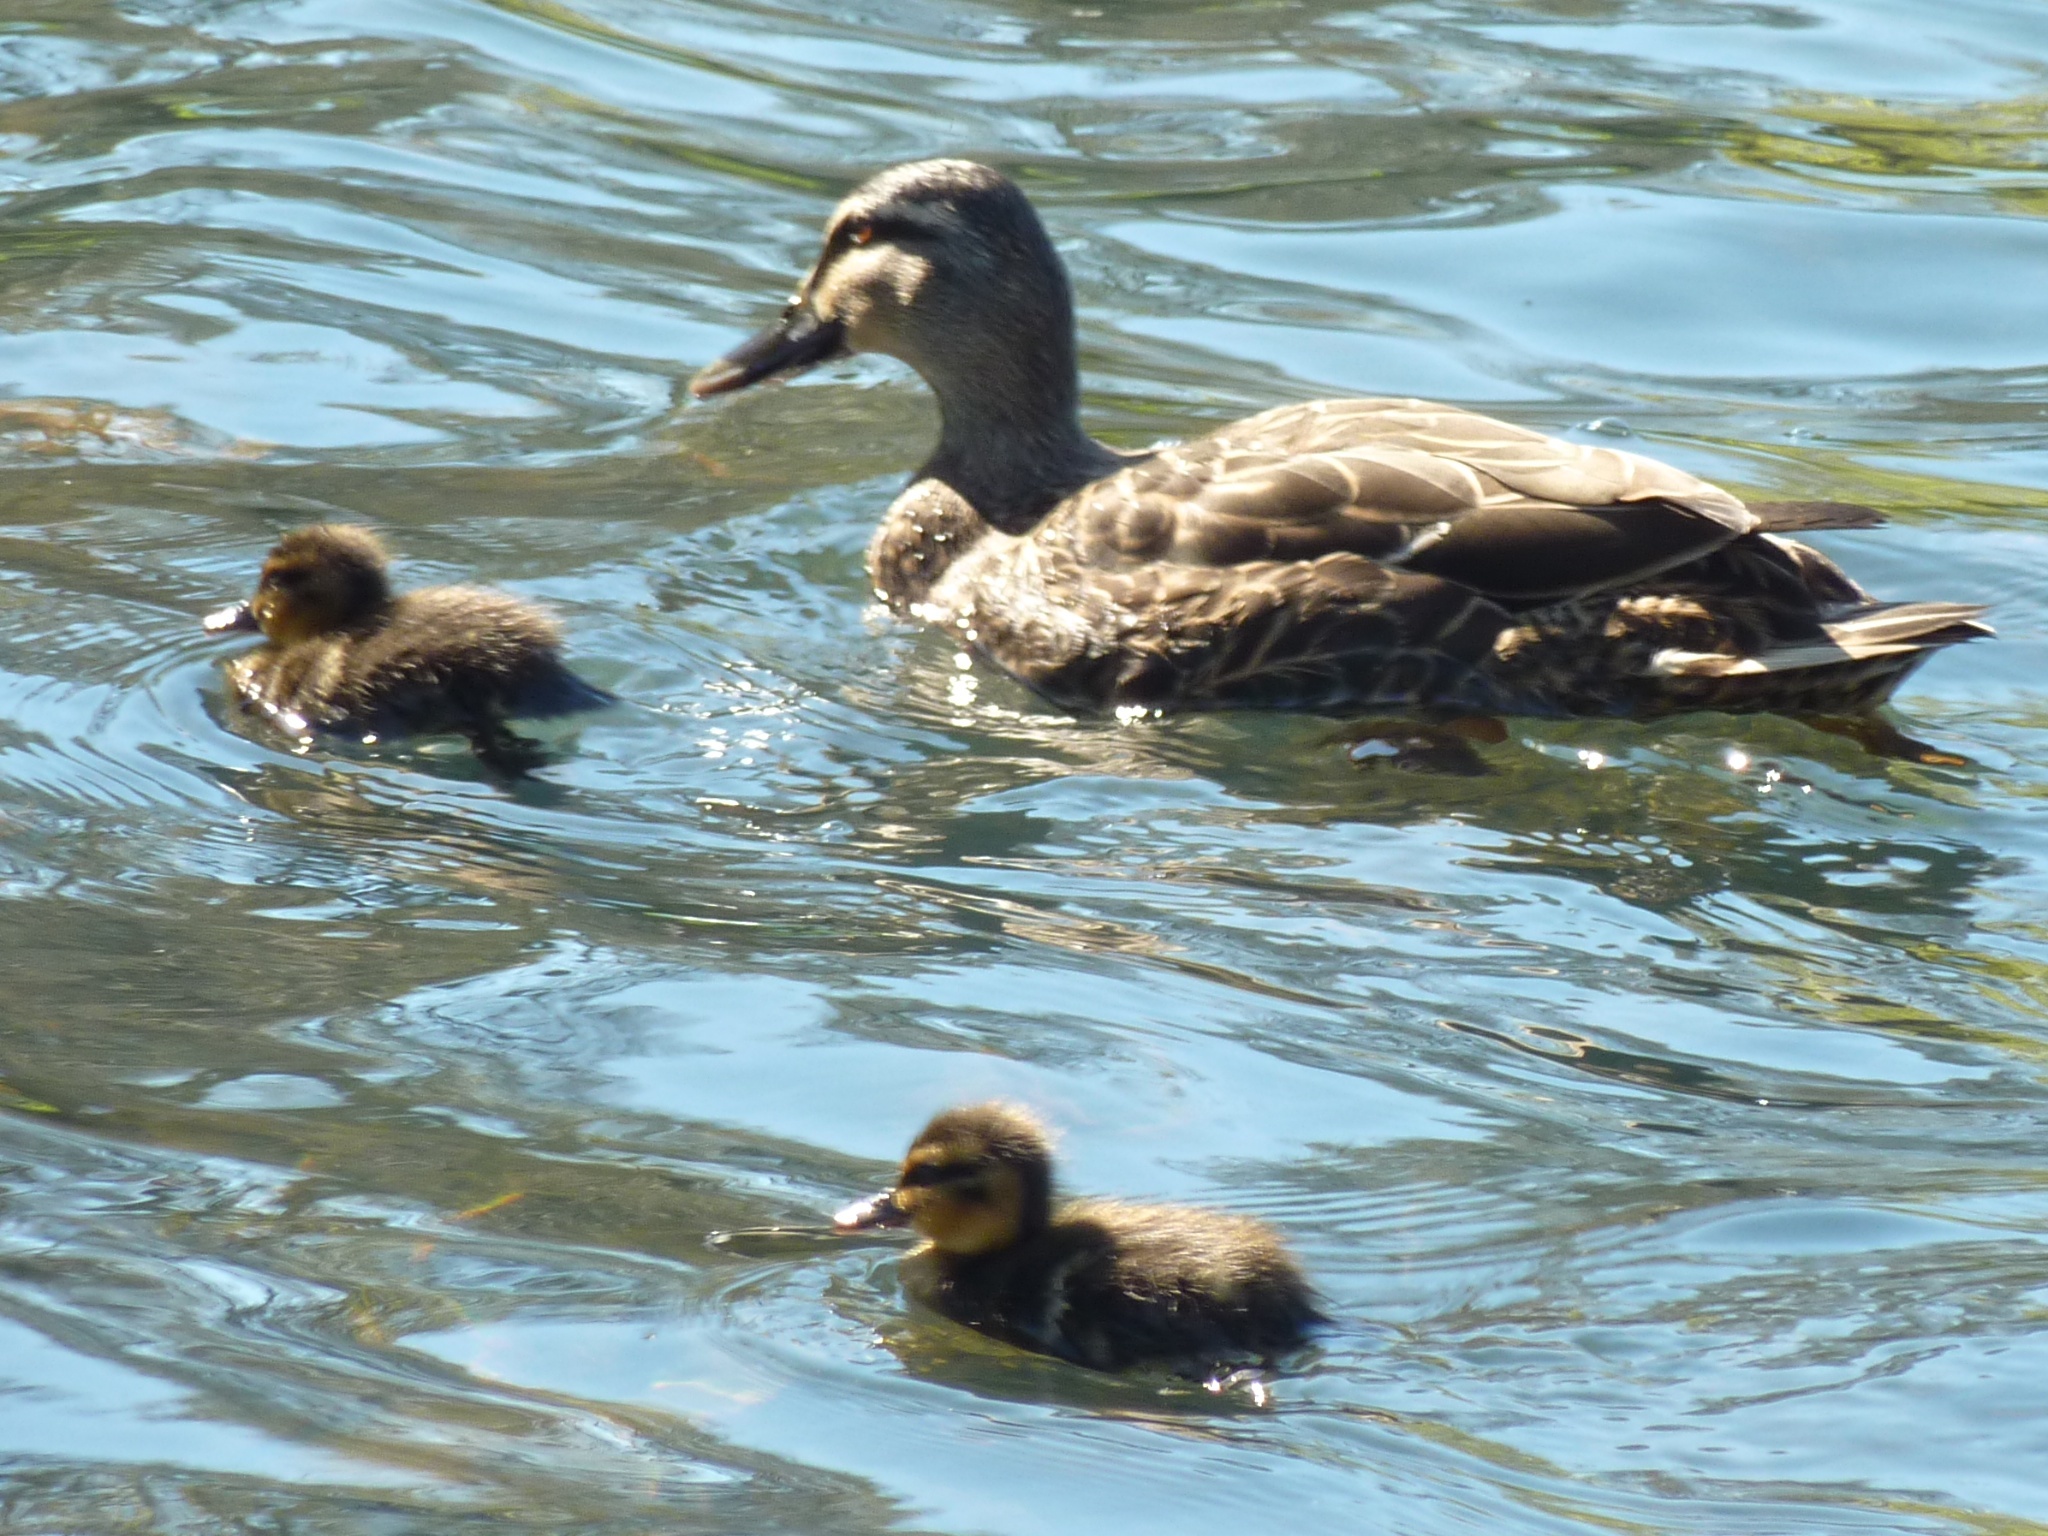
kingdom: Animalia
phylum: Chordata
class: Aves
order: Anseriformes
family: Anatidae
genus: Anas
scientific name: Anas
